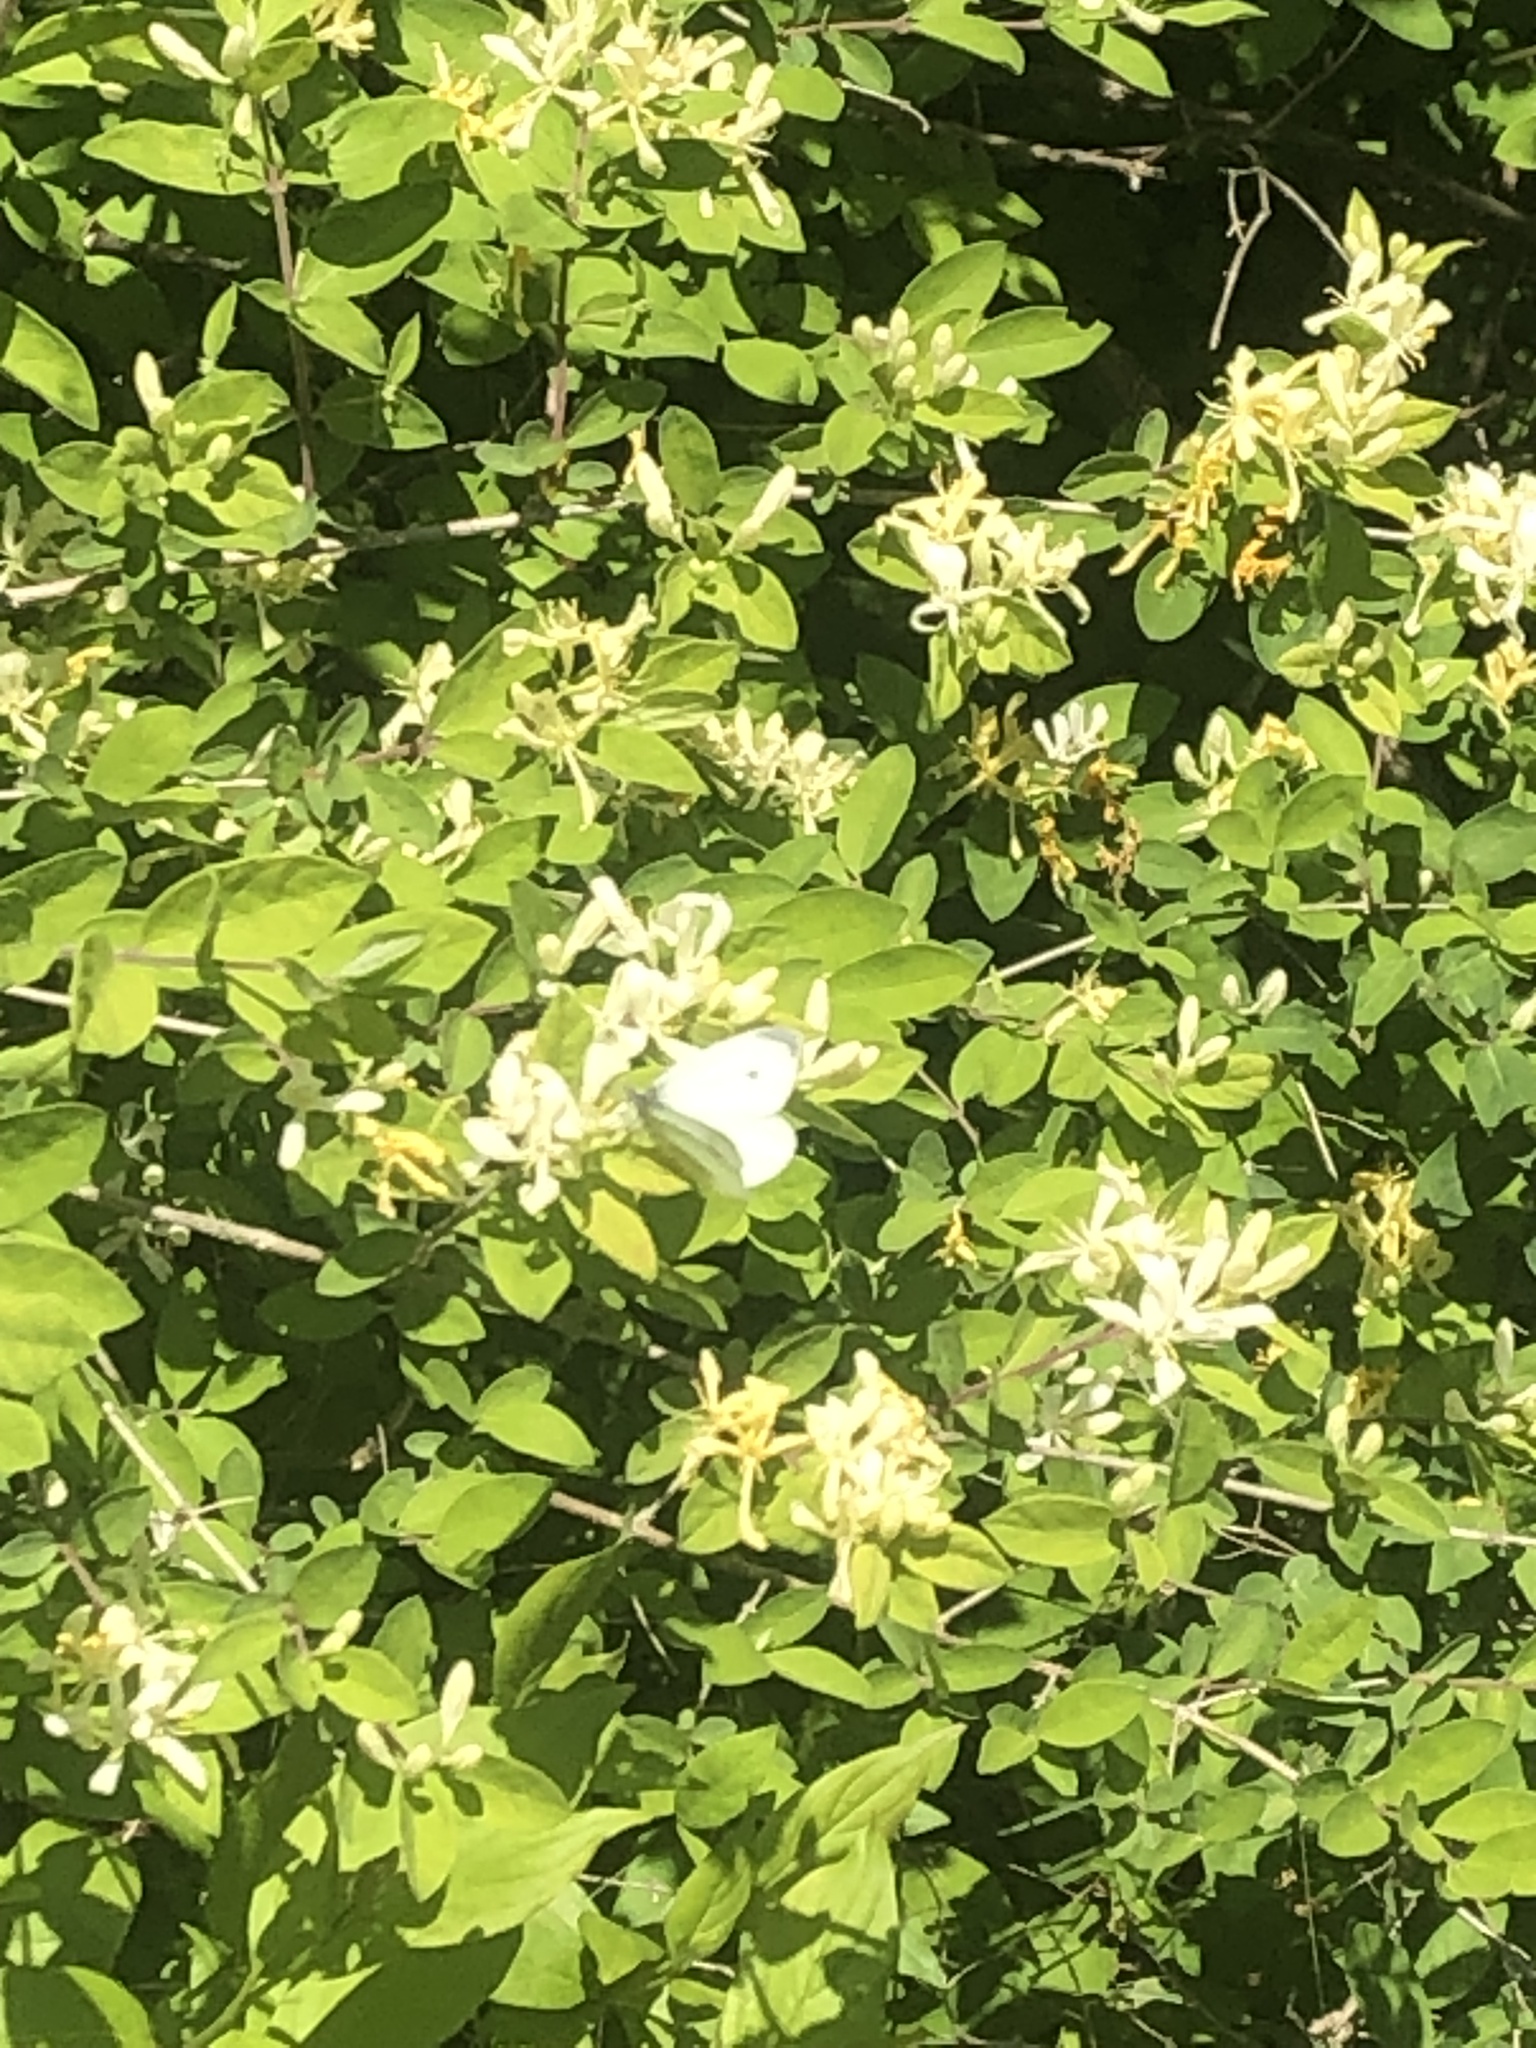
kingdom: Animalia
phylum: Arthropoda
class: Insecta
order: Lepidoptera
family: Pieridae
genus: Pieris
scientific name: Pieris rapae
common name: Small white
